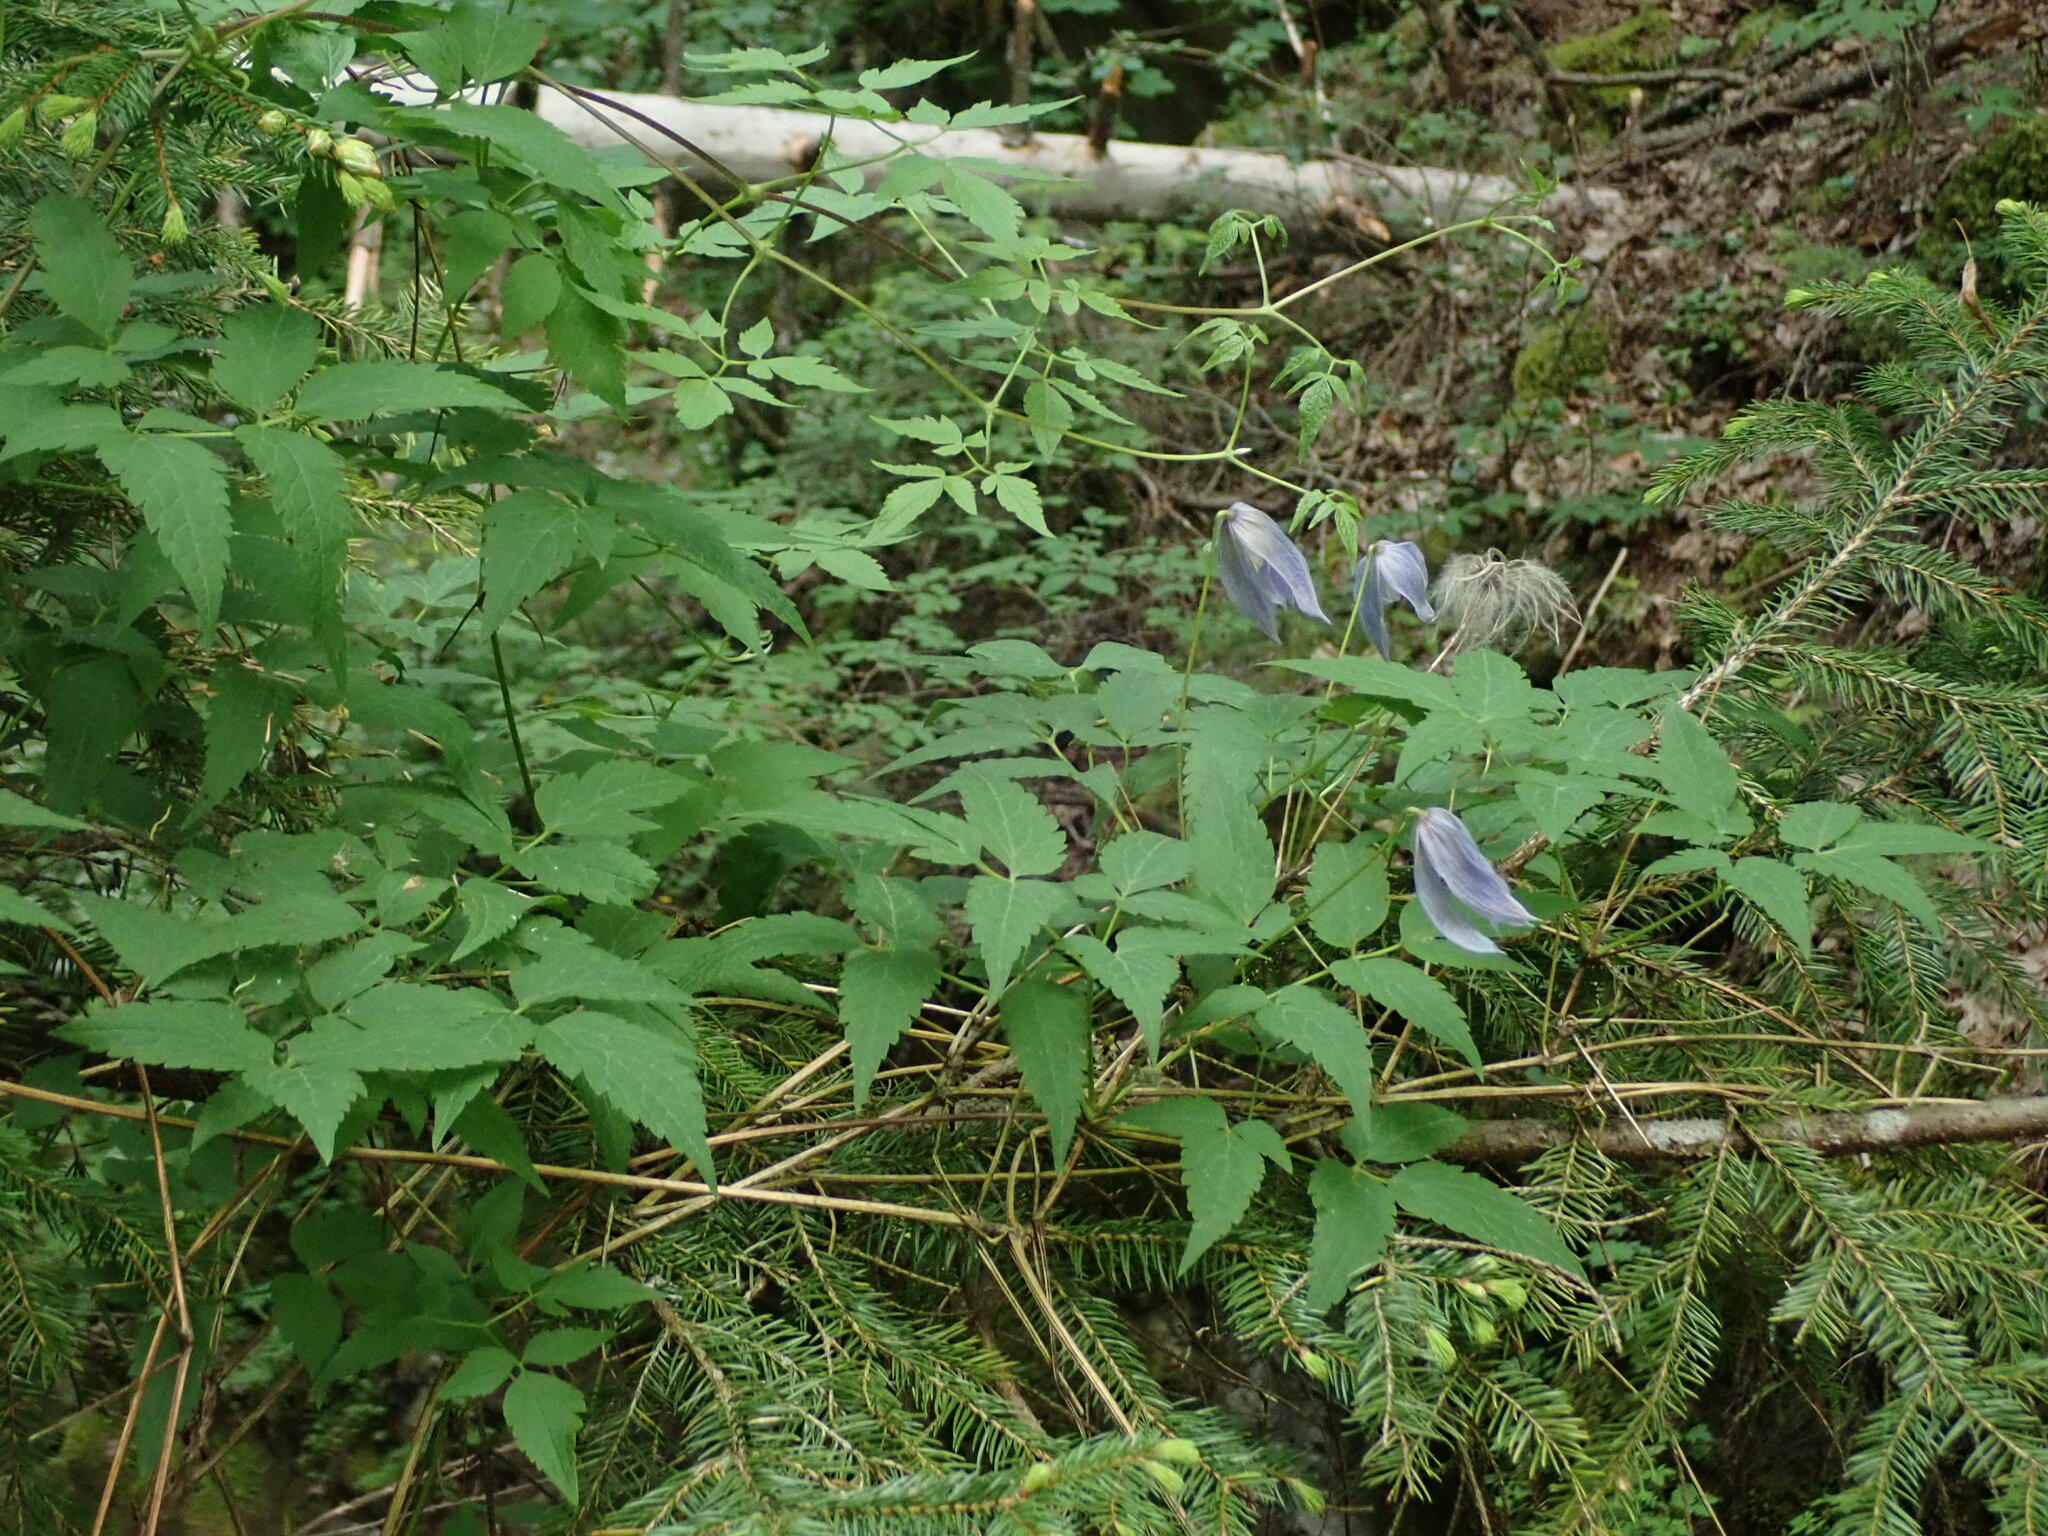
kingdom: Plantae
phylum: Tracheophyta
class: Magnoliopsida
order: Ranunculales
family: Ranunculaceae
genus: Clematis
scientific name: Clematis alpina
